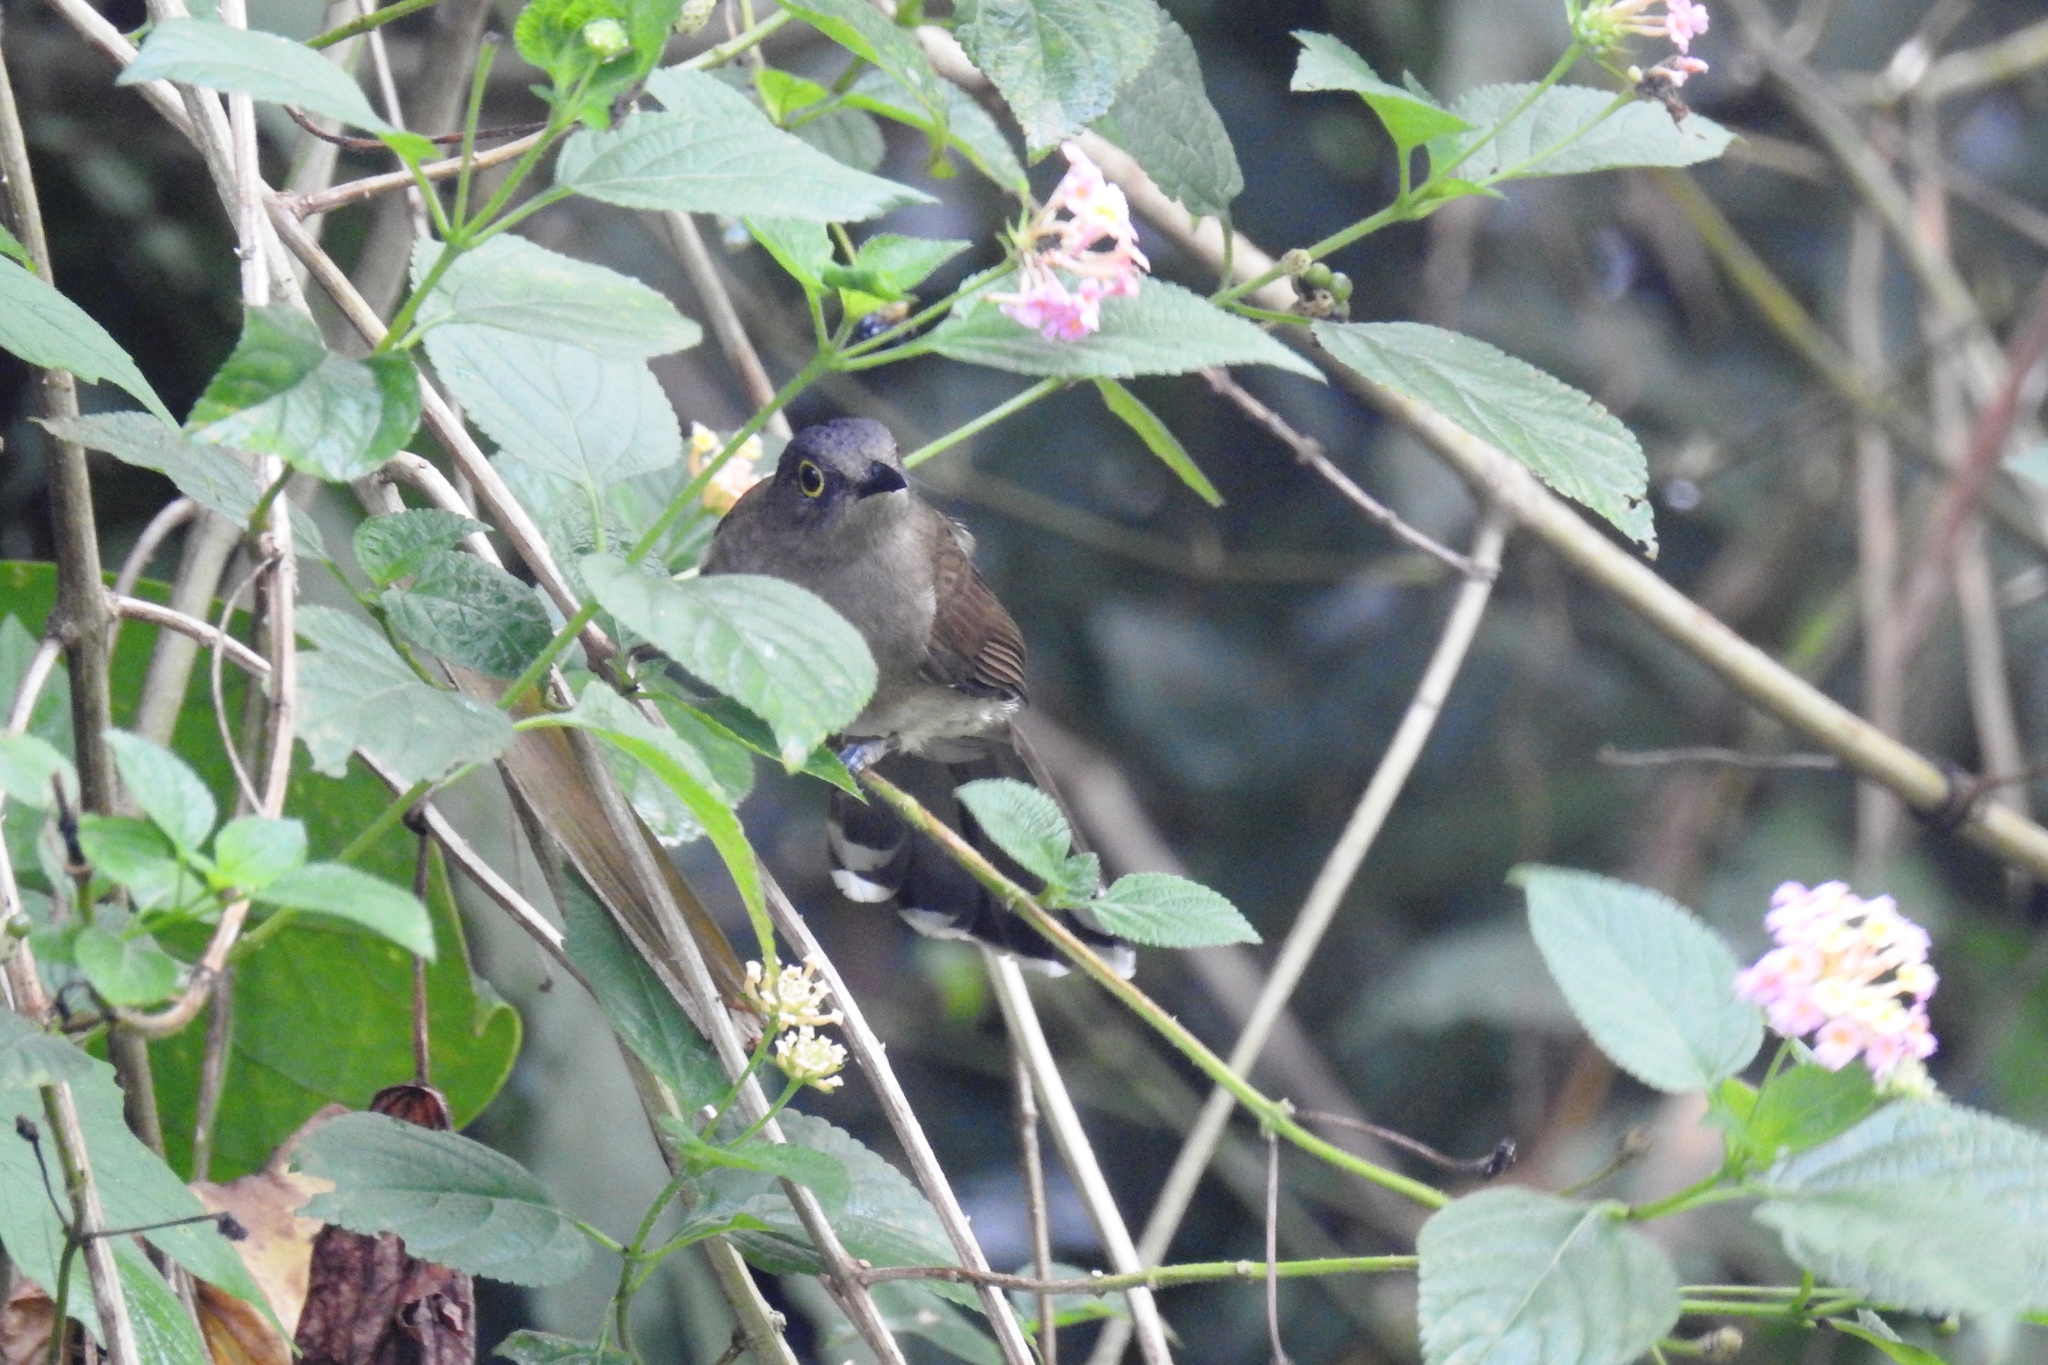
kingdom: Animalia
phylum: Chordata
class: Aves
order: Passeriformes
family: Pycnonotidae
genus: Microtarsus
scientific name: Microtarsus
